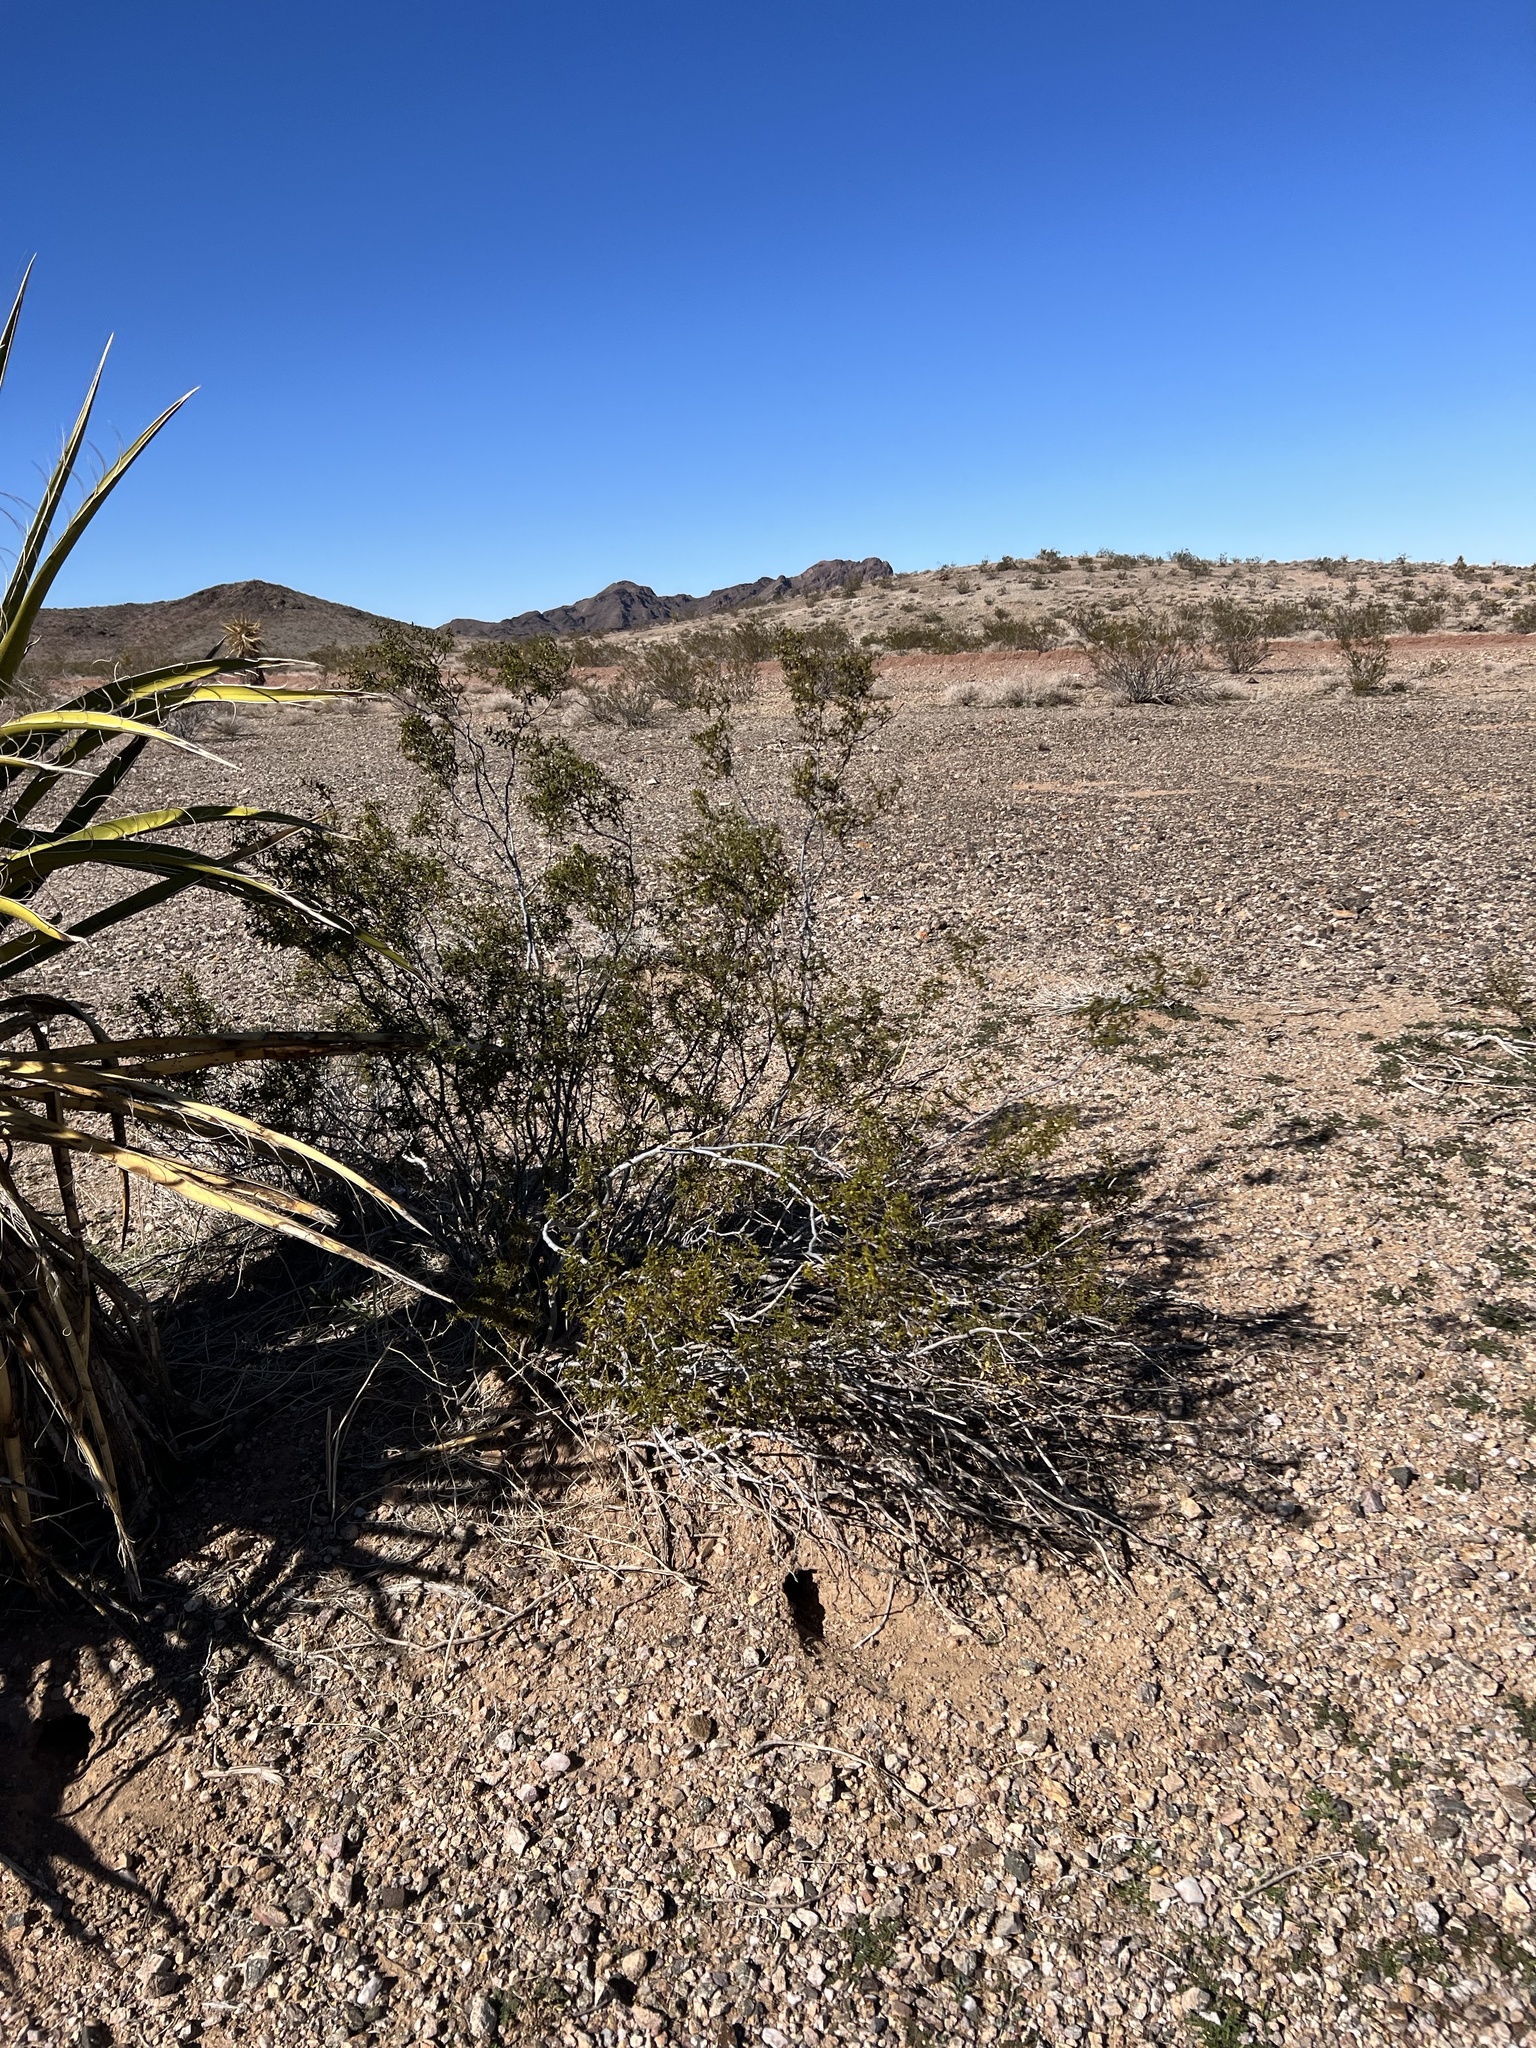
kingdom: Plantae
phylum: Tracheophyta
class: Magnoliopsida
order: Zygophyllales
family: Zygophyllaceae
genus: Larrea
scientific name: Larrea tridentata
